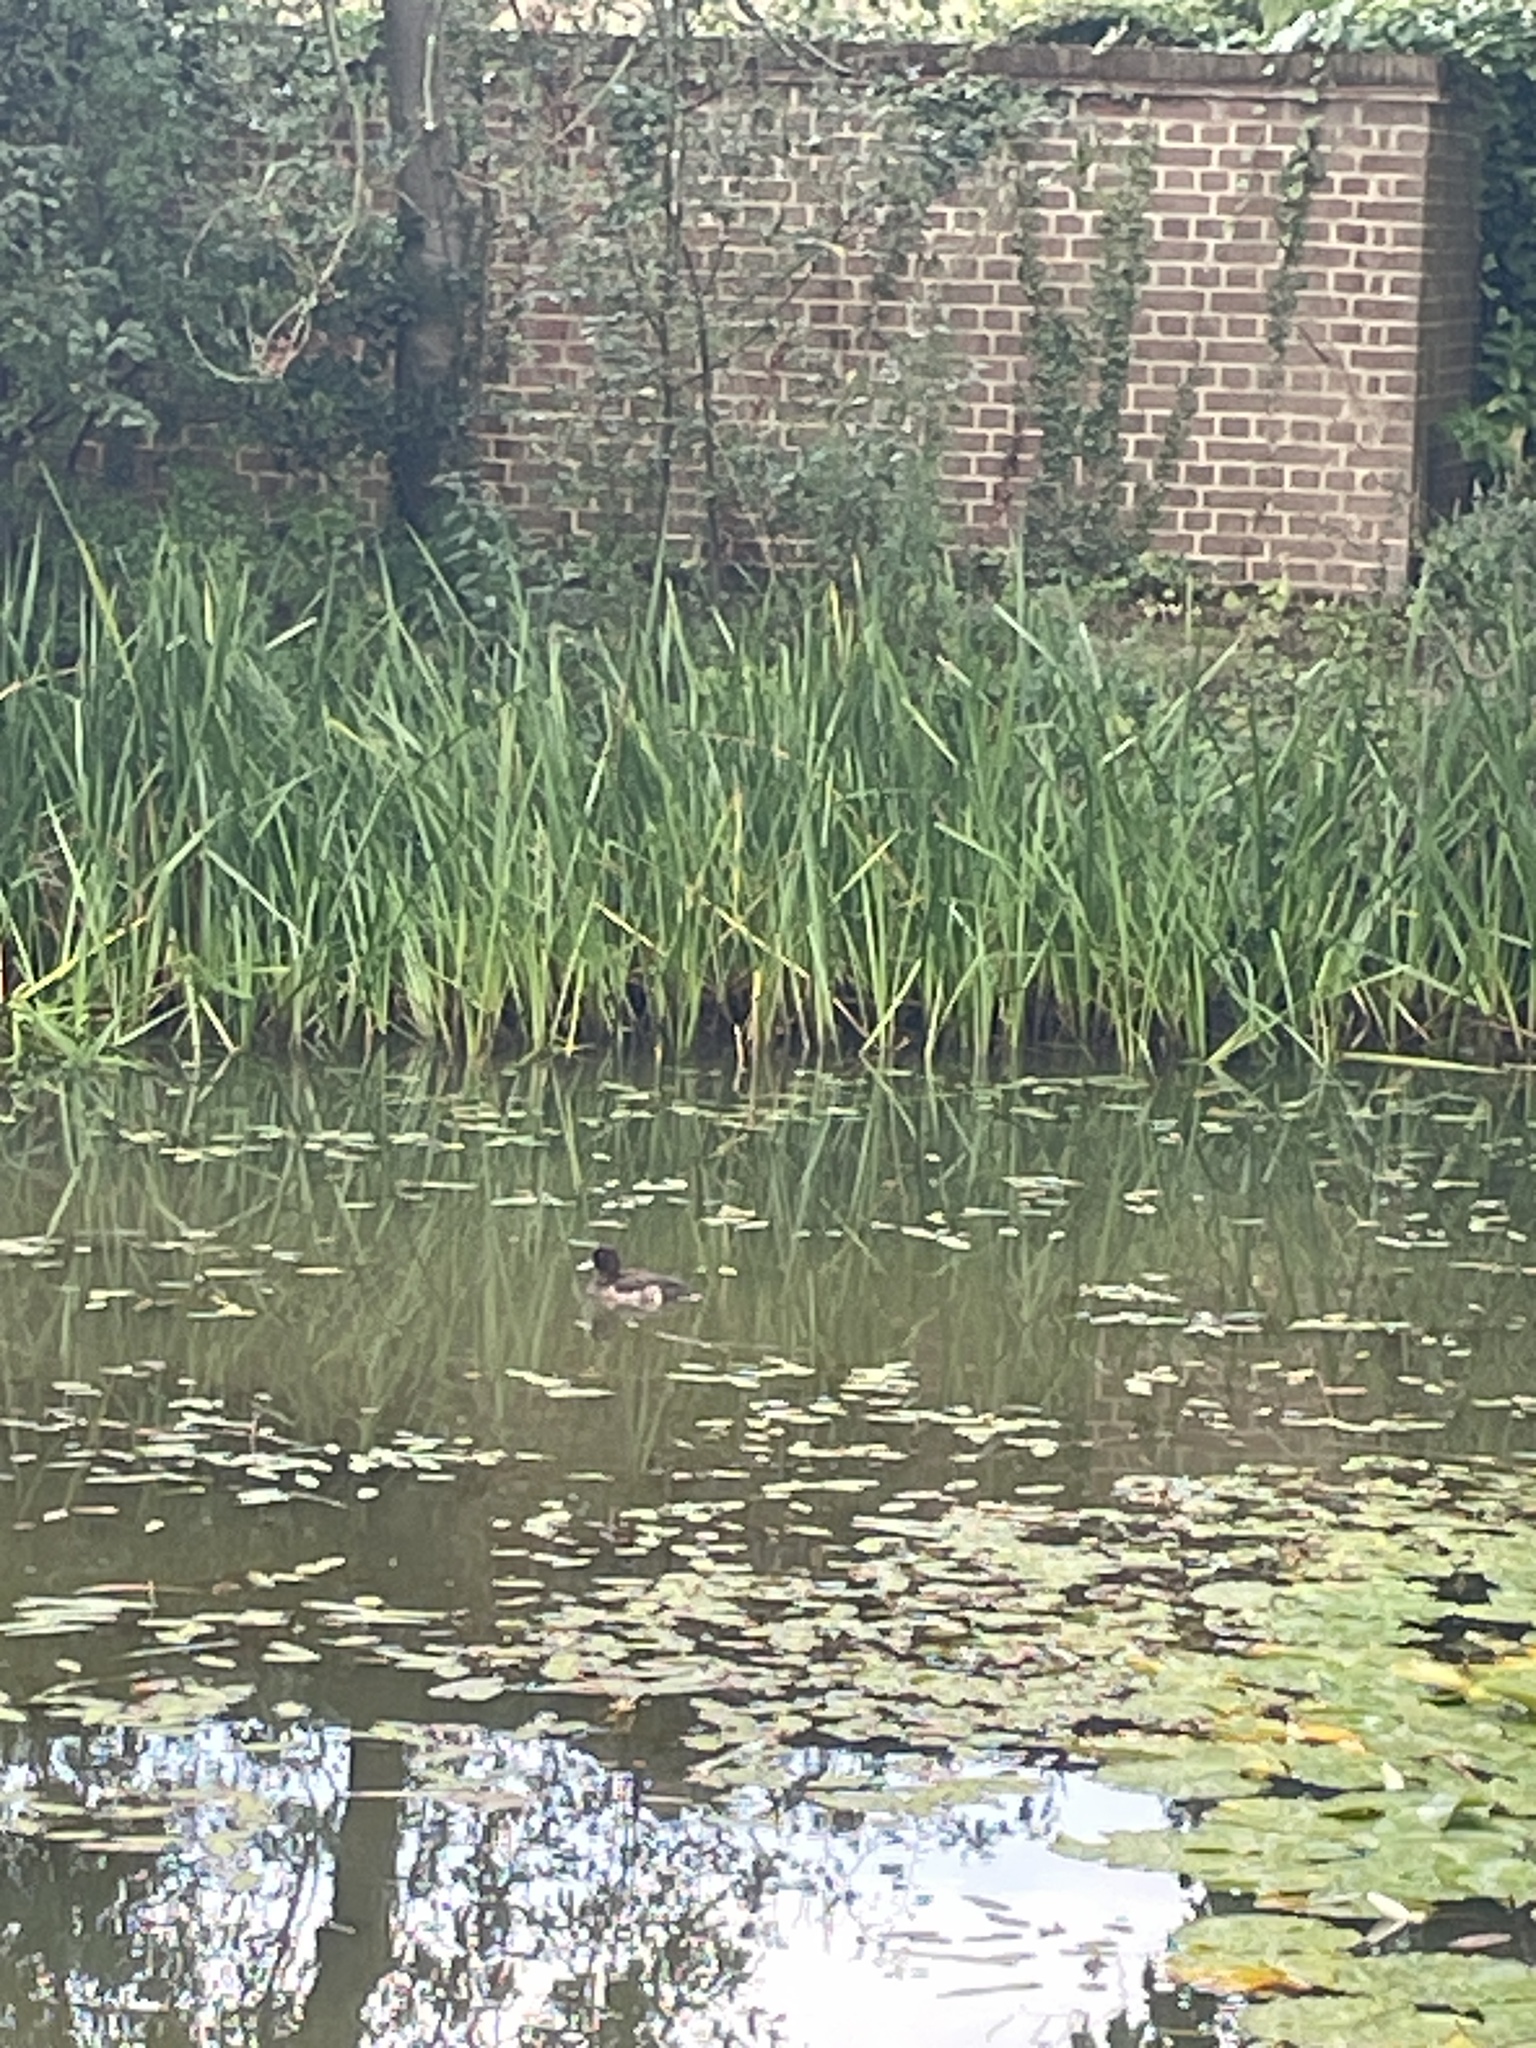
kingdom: Animalia
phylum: Chordata
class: Aves
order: Anseriformes
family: Anatidae
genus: Aythya
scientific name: Aythya fuligula
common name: Tufted duck
